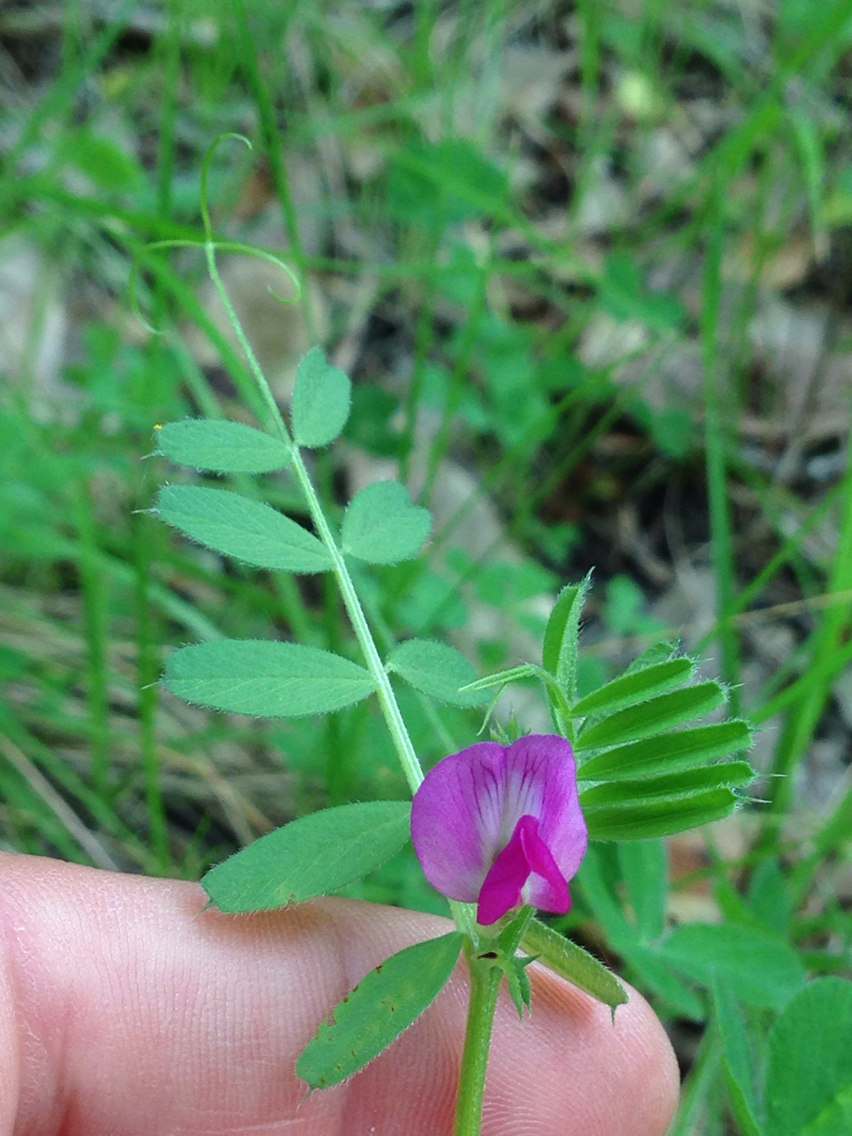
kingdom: Plantae
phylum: Tracheophyta
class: Magnoliopsida
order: Fabales
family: Fabaceae
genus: Vicia
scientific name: Vicia sativa
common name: Garden vetch
